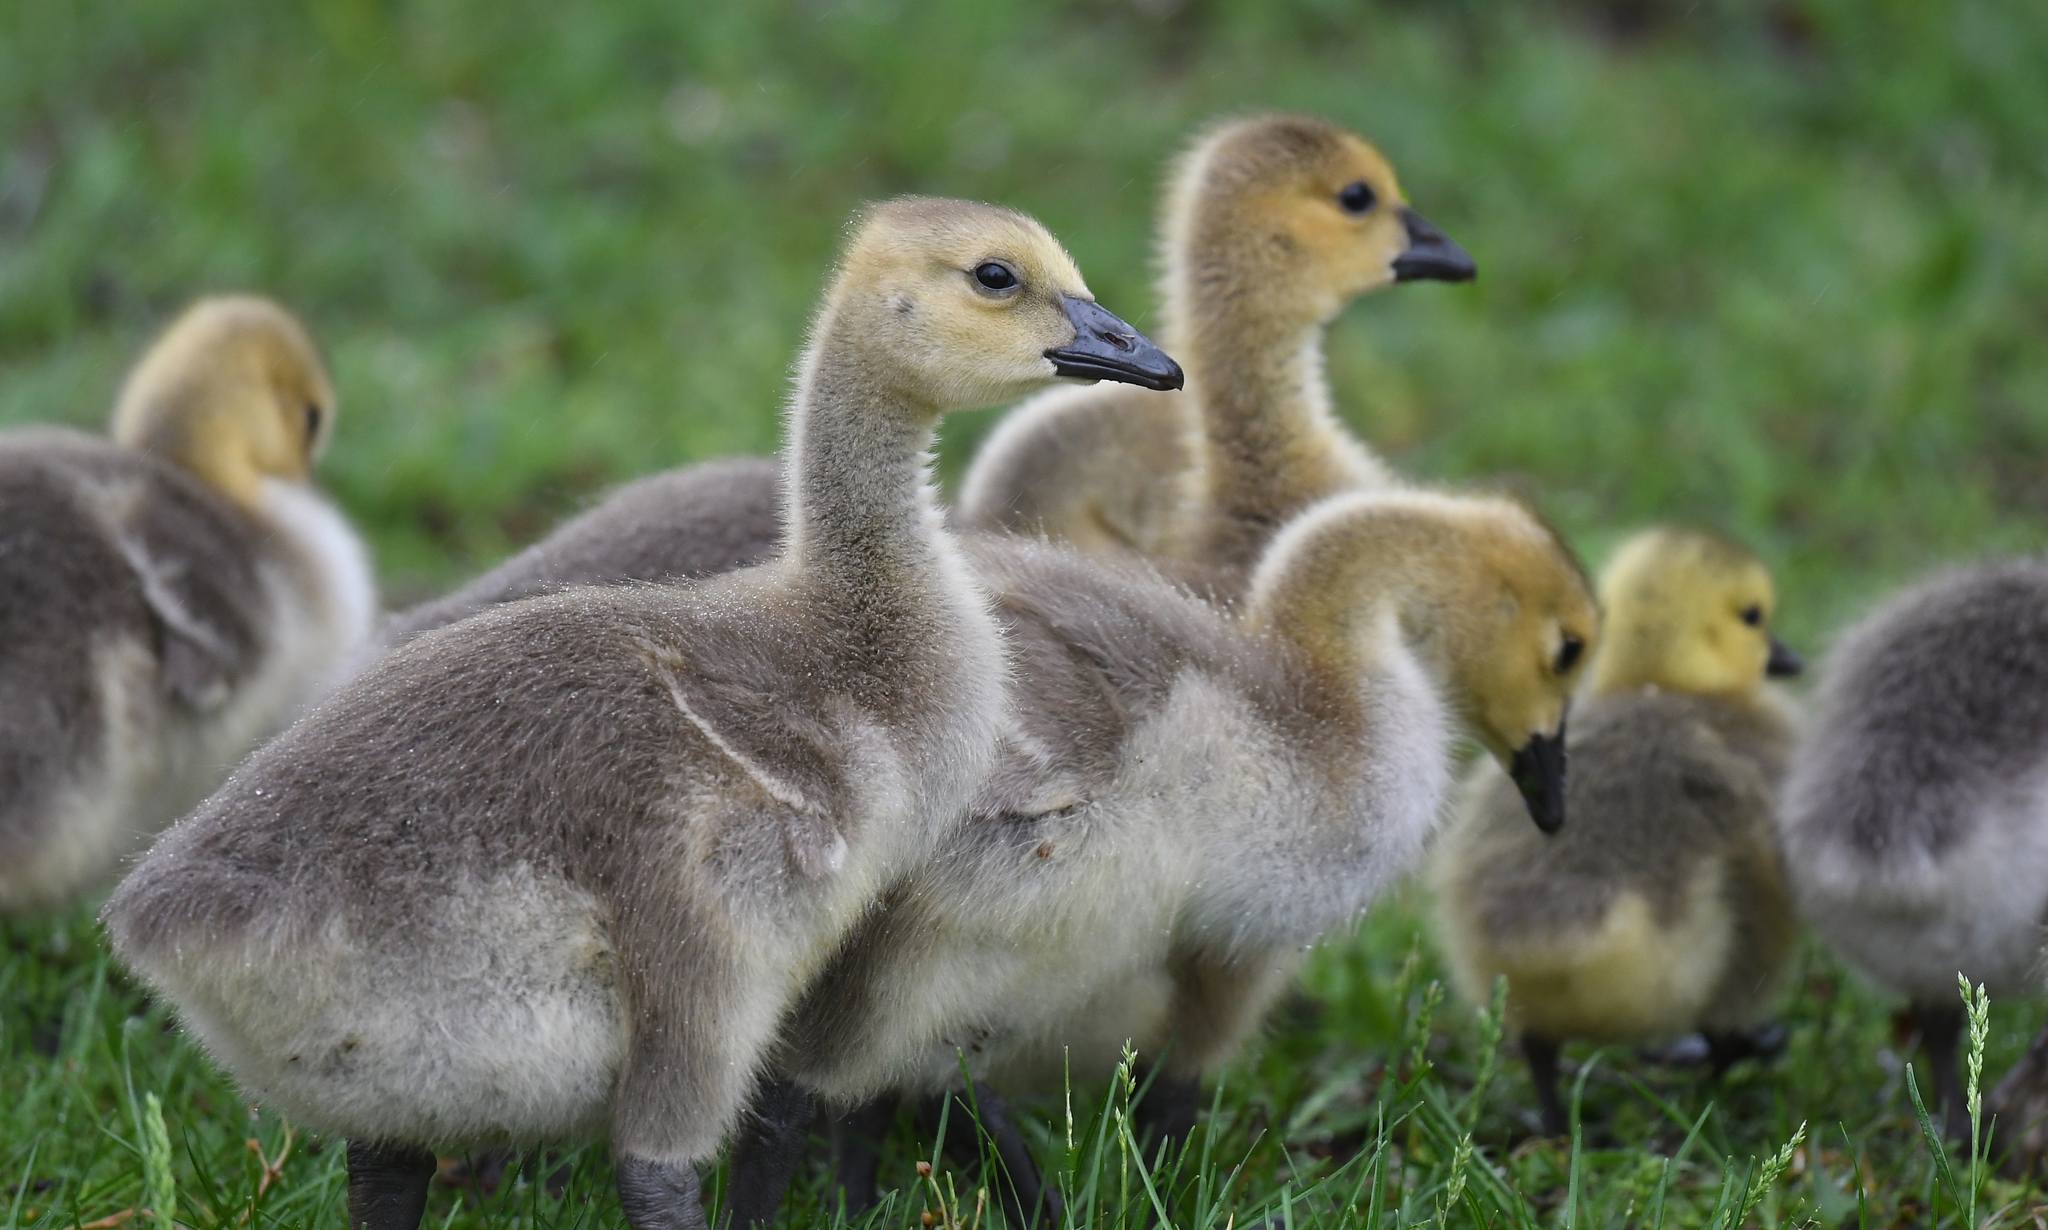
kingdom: Animalia
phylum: Chordata
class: Aves
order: Anseriformes
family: Anatidae
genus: Branta
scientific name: Branta canadensis
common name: Canada goose
